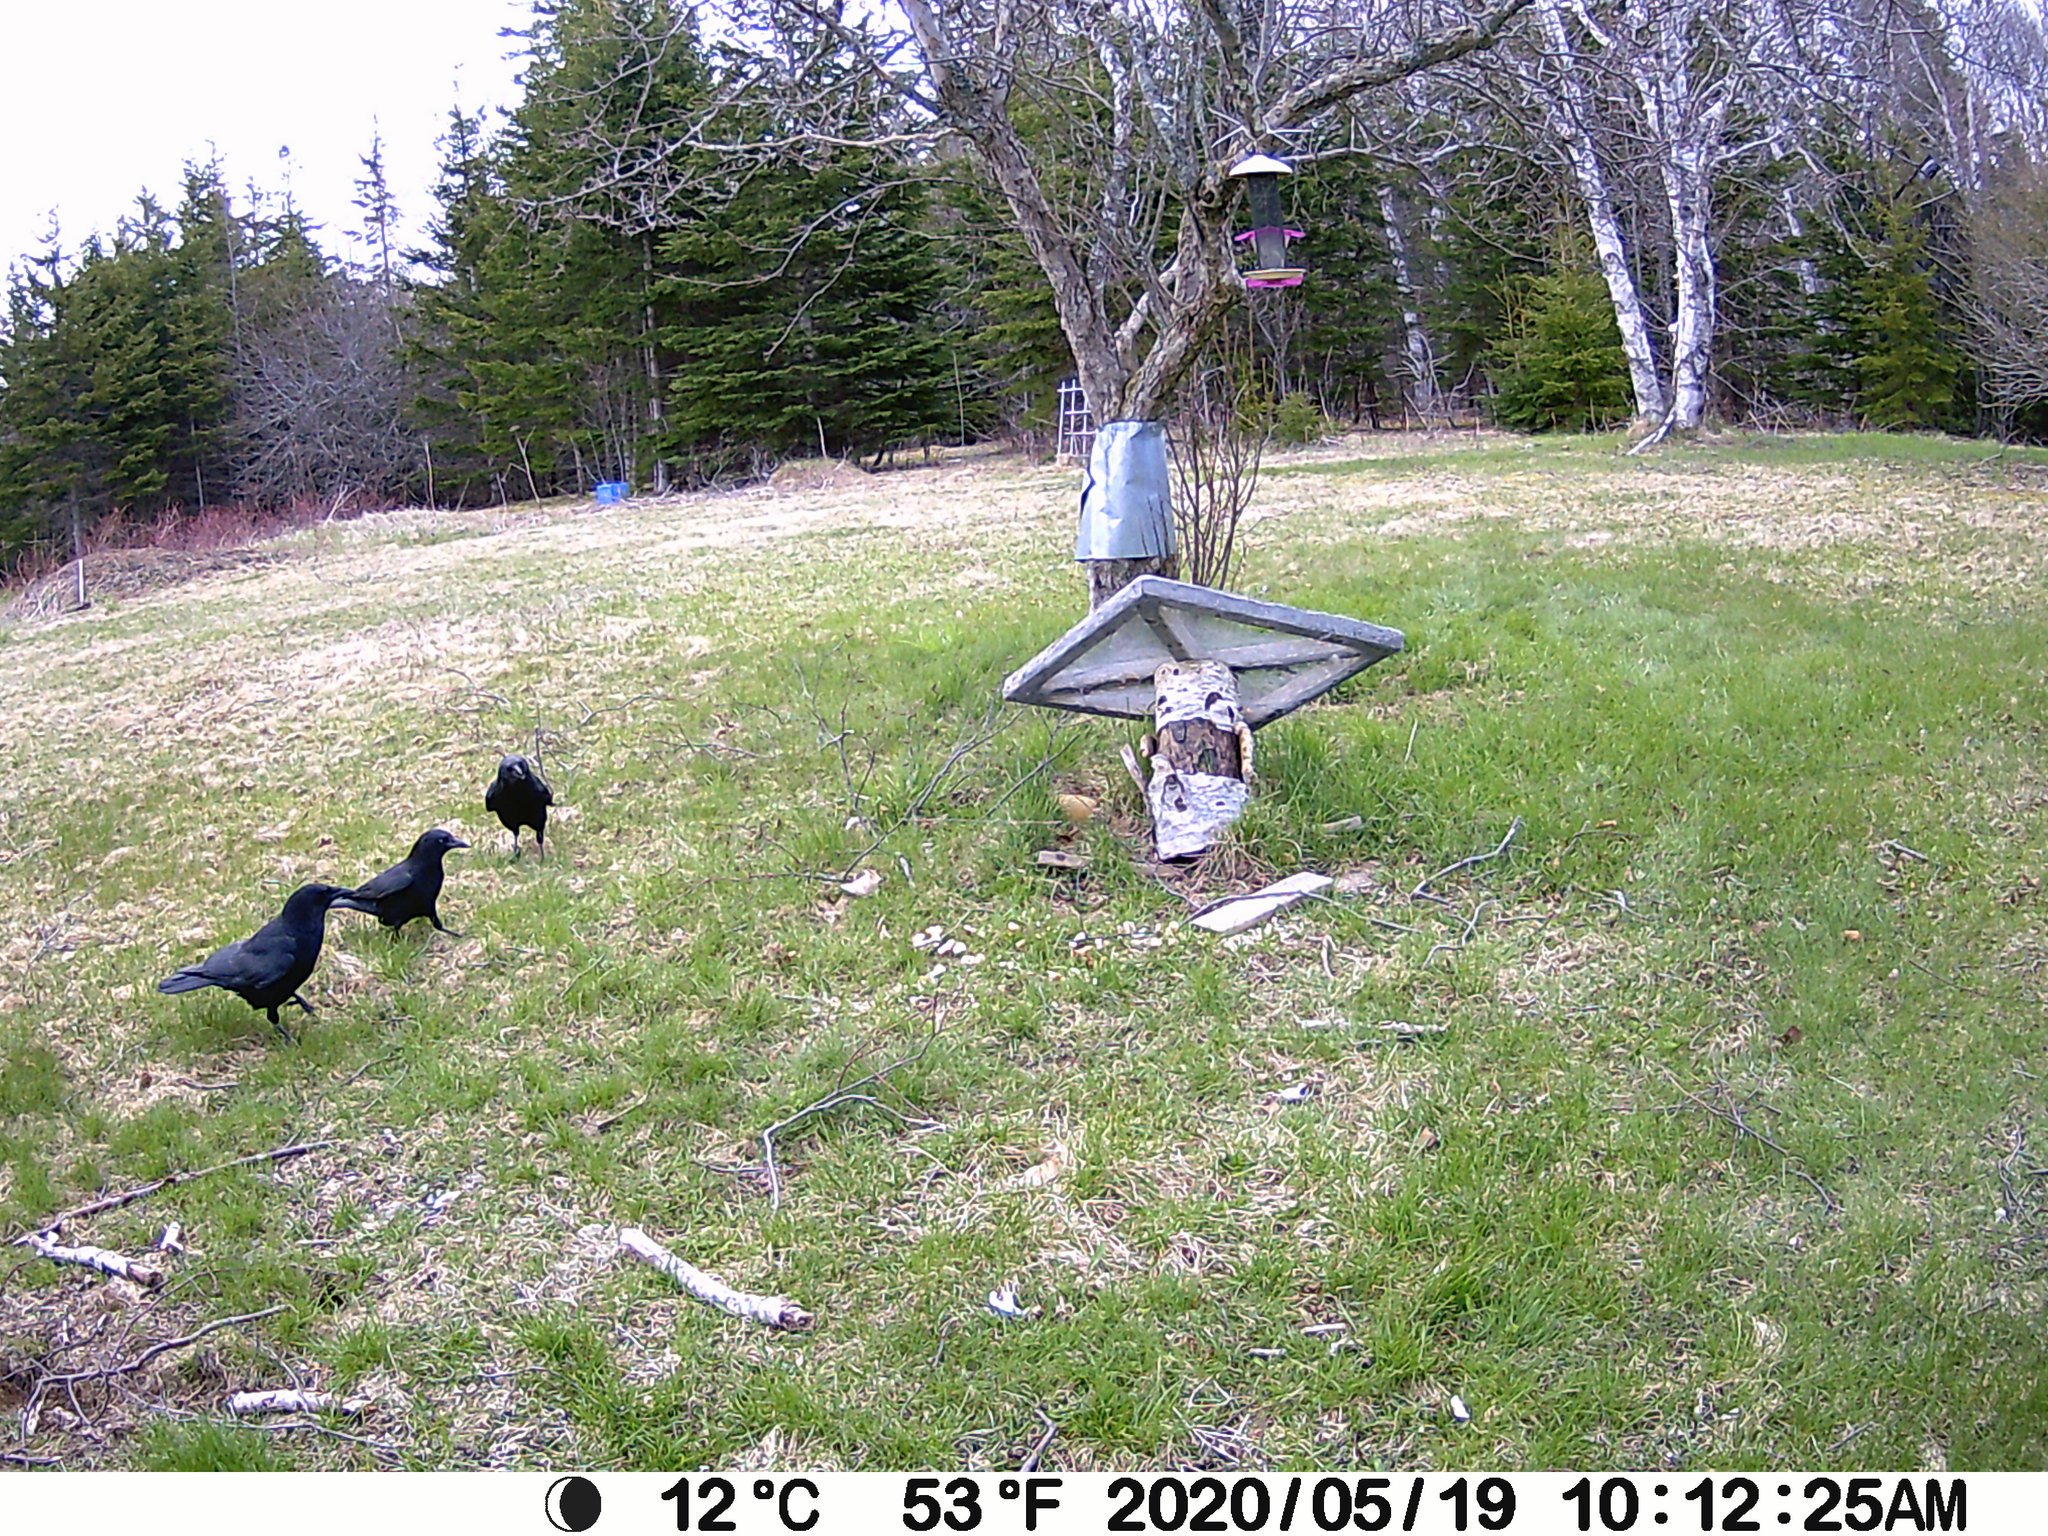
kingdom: Animalia
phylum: Chordata
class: Aves
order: Passeriformes
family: Corvidae
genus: Corvus
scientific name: Corvus brachyrhynchos
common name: American crow
